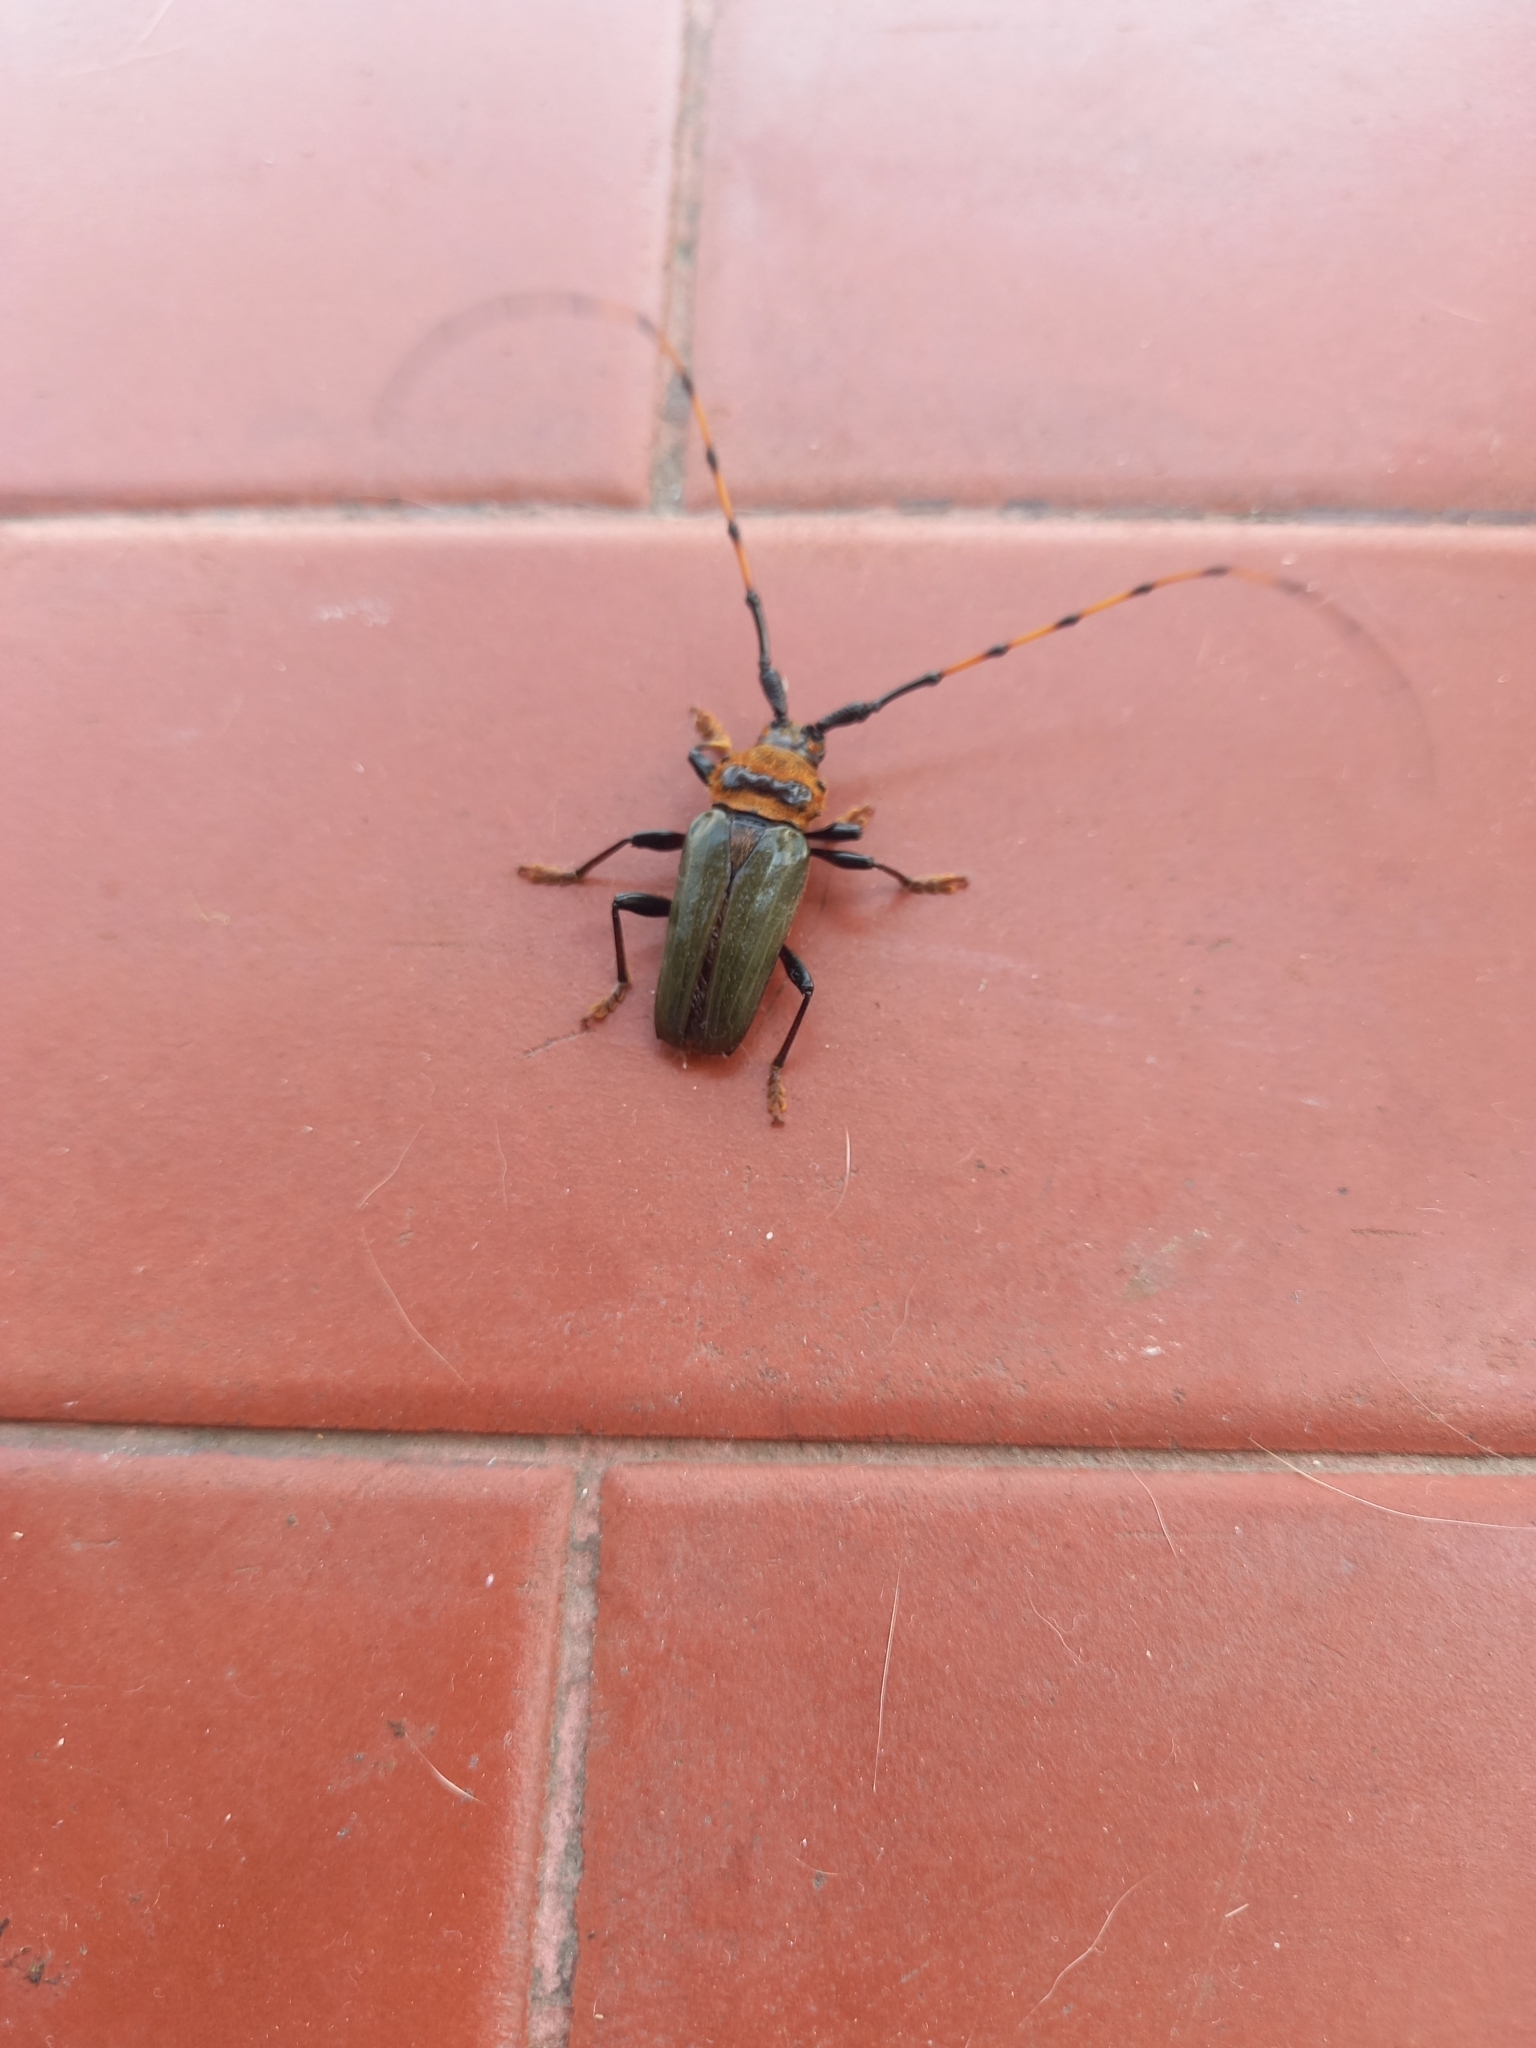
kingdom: Animalia
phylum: Arthropoda
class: Insecta
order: Coleoptera
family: Cerambycidae
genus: Retrachydes
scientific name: Retrachydes thoracicus
